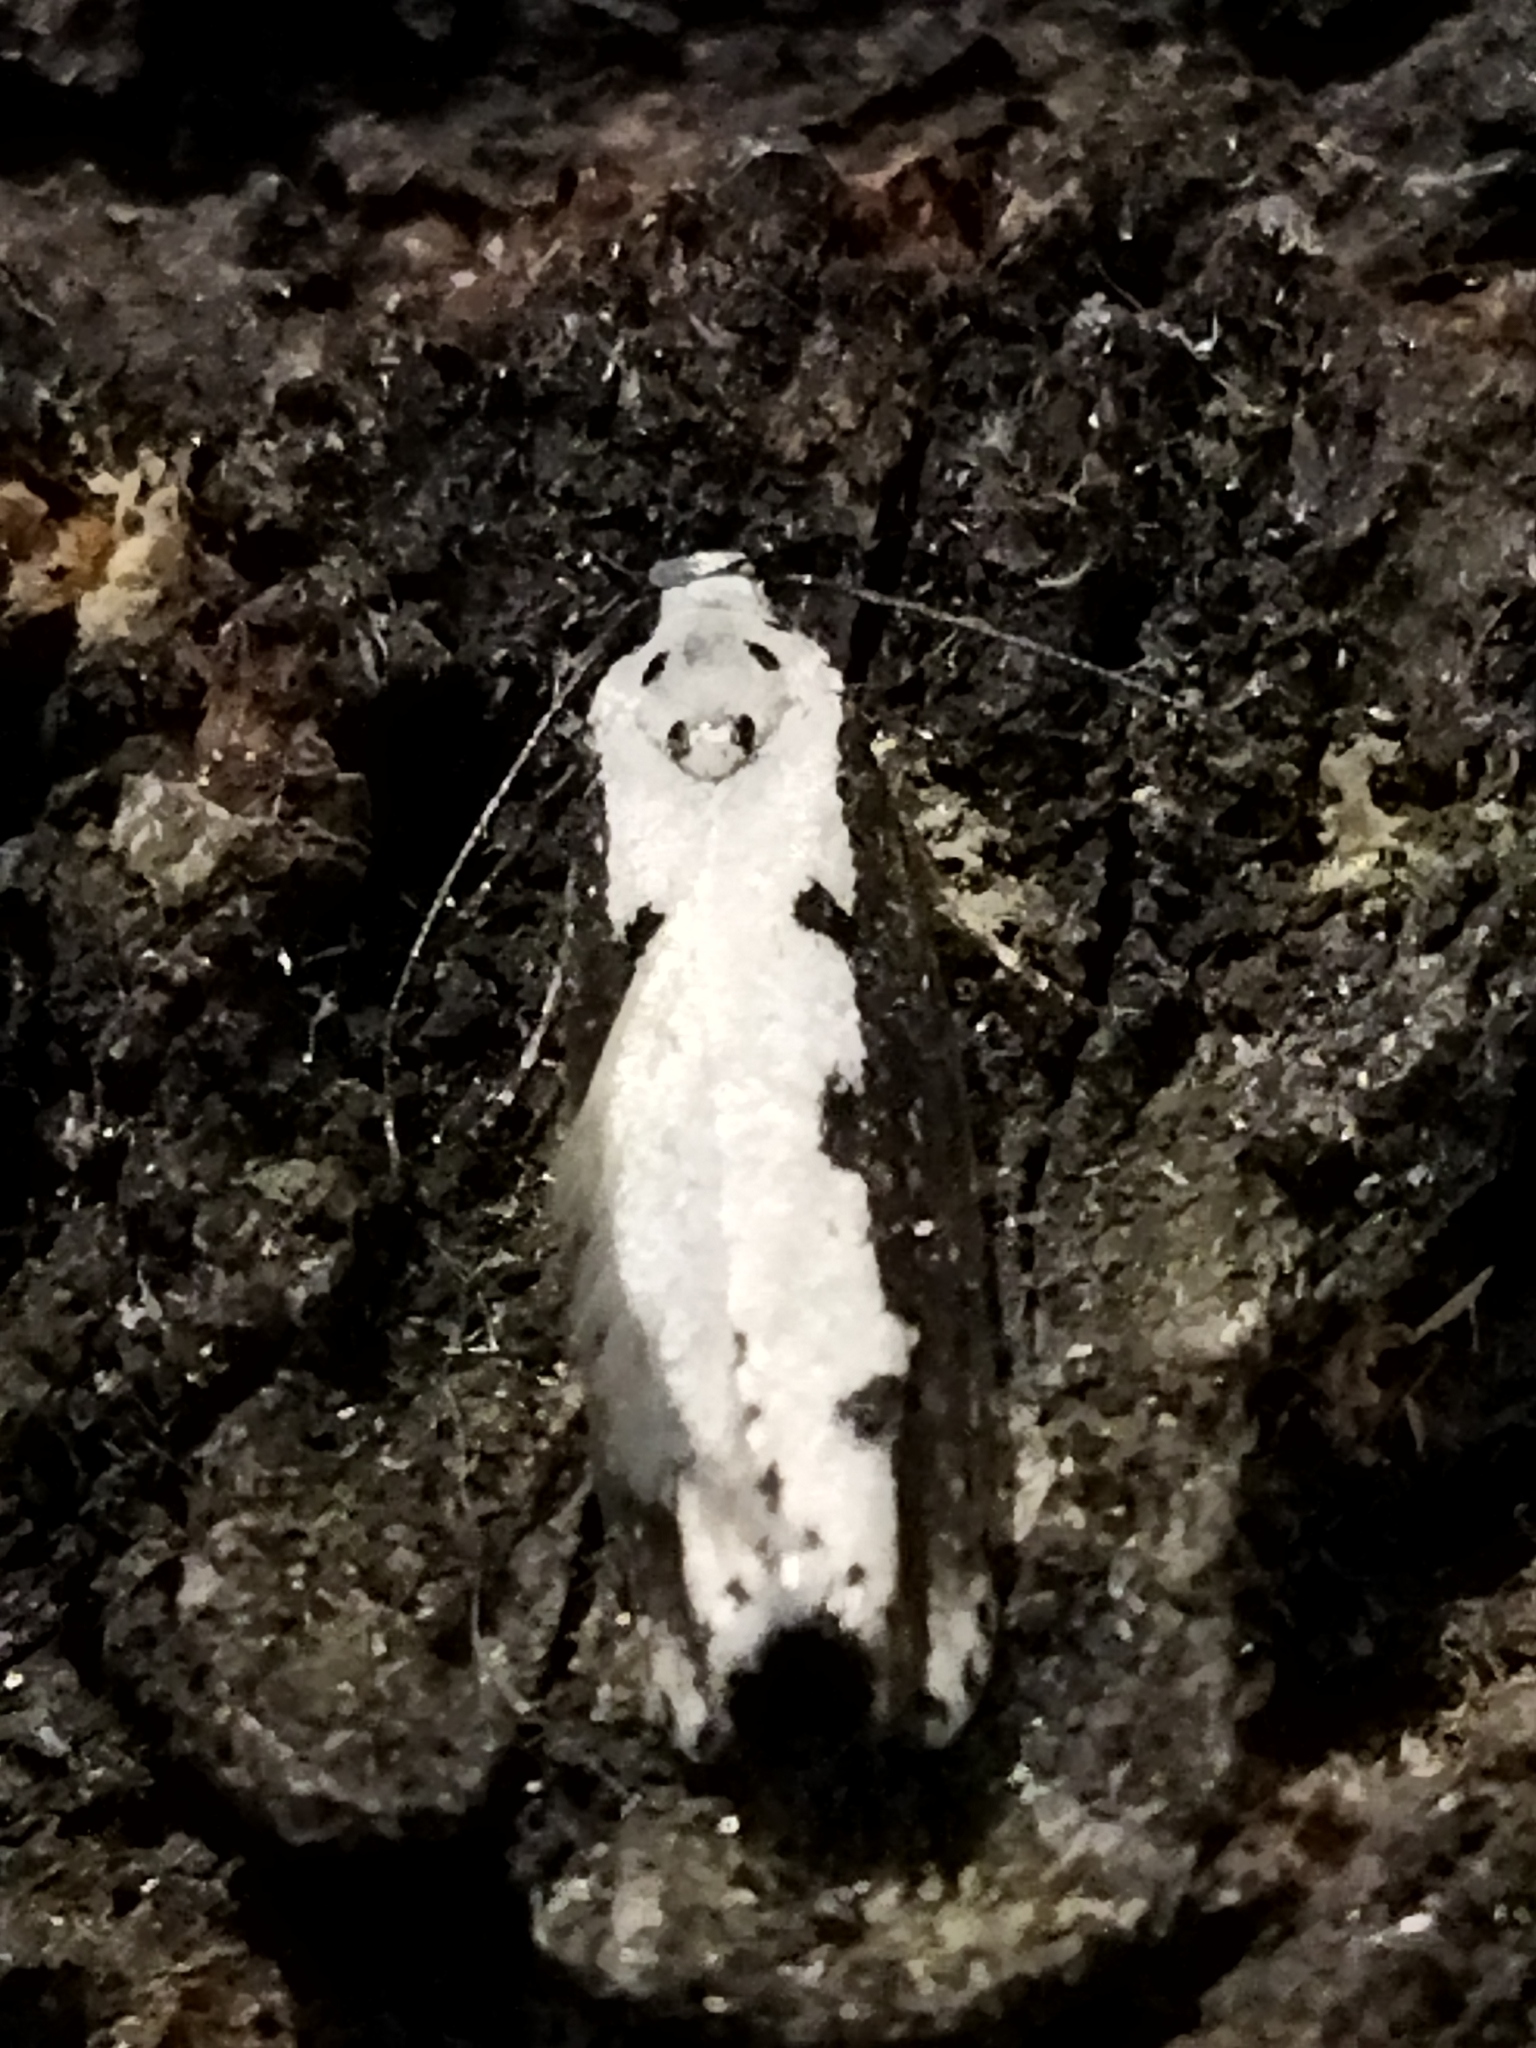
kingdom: Animalia
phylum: Arthropoda
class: Insecta
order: Lepidoptera
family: Ethmiidae
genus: Ethmia
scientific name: Ethmia bipunctella
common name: Bordered ermel
